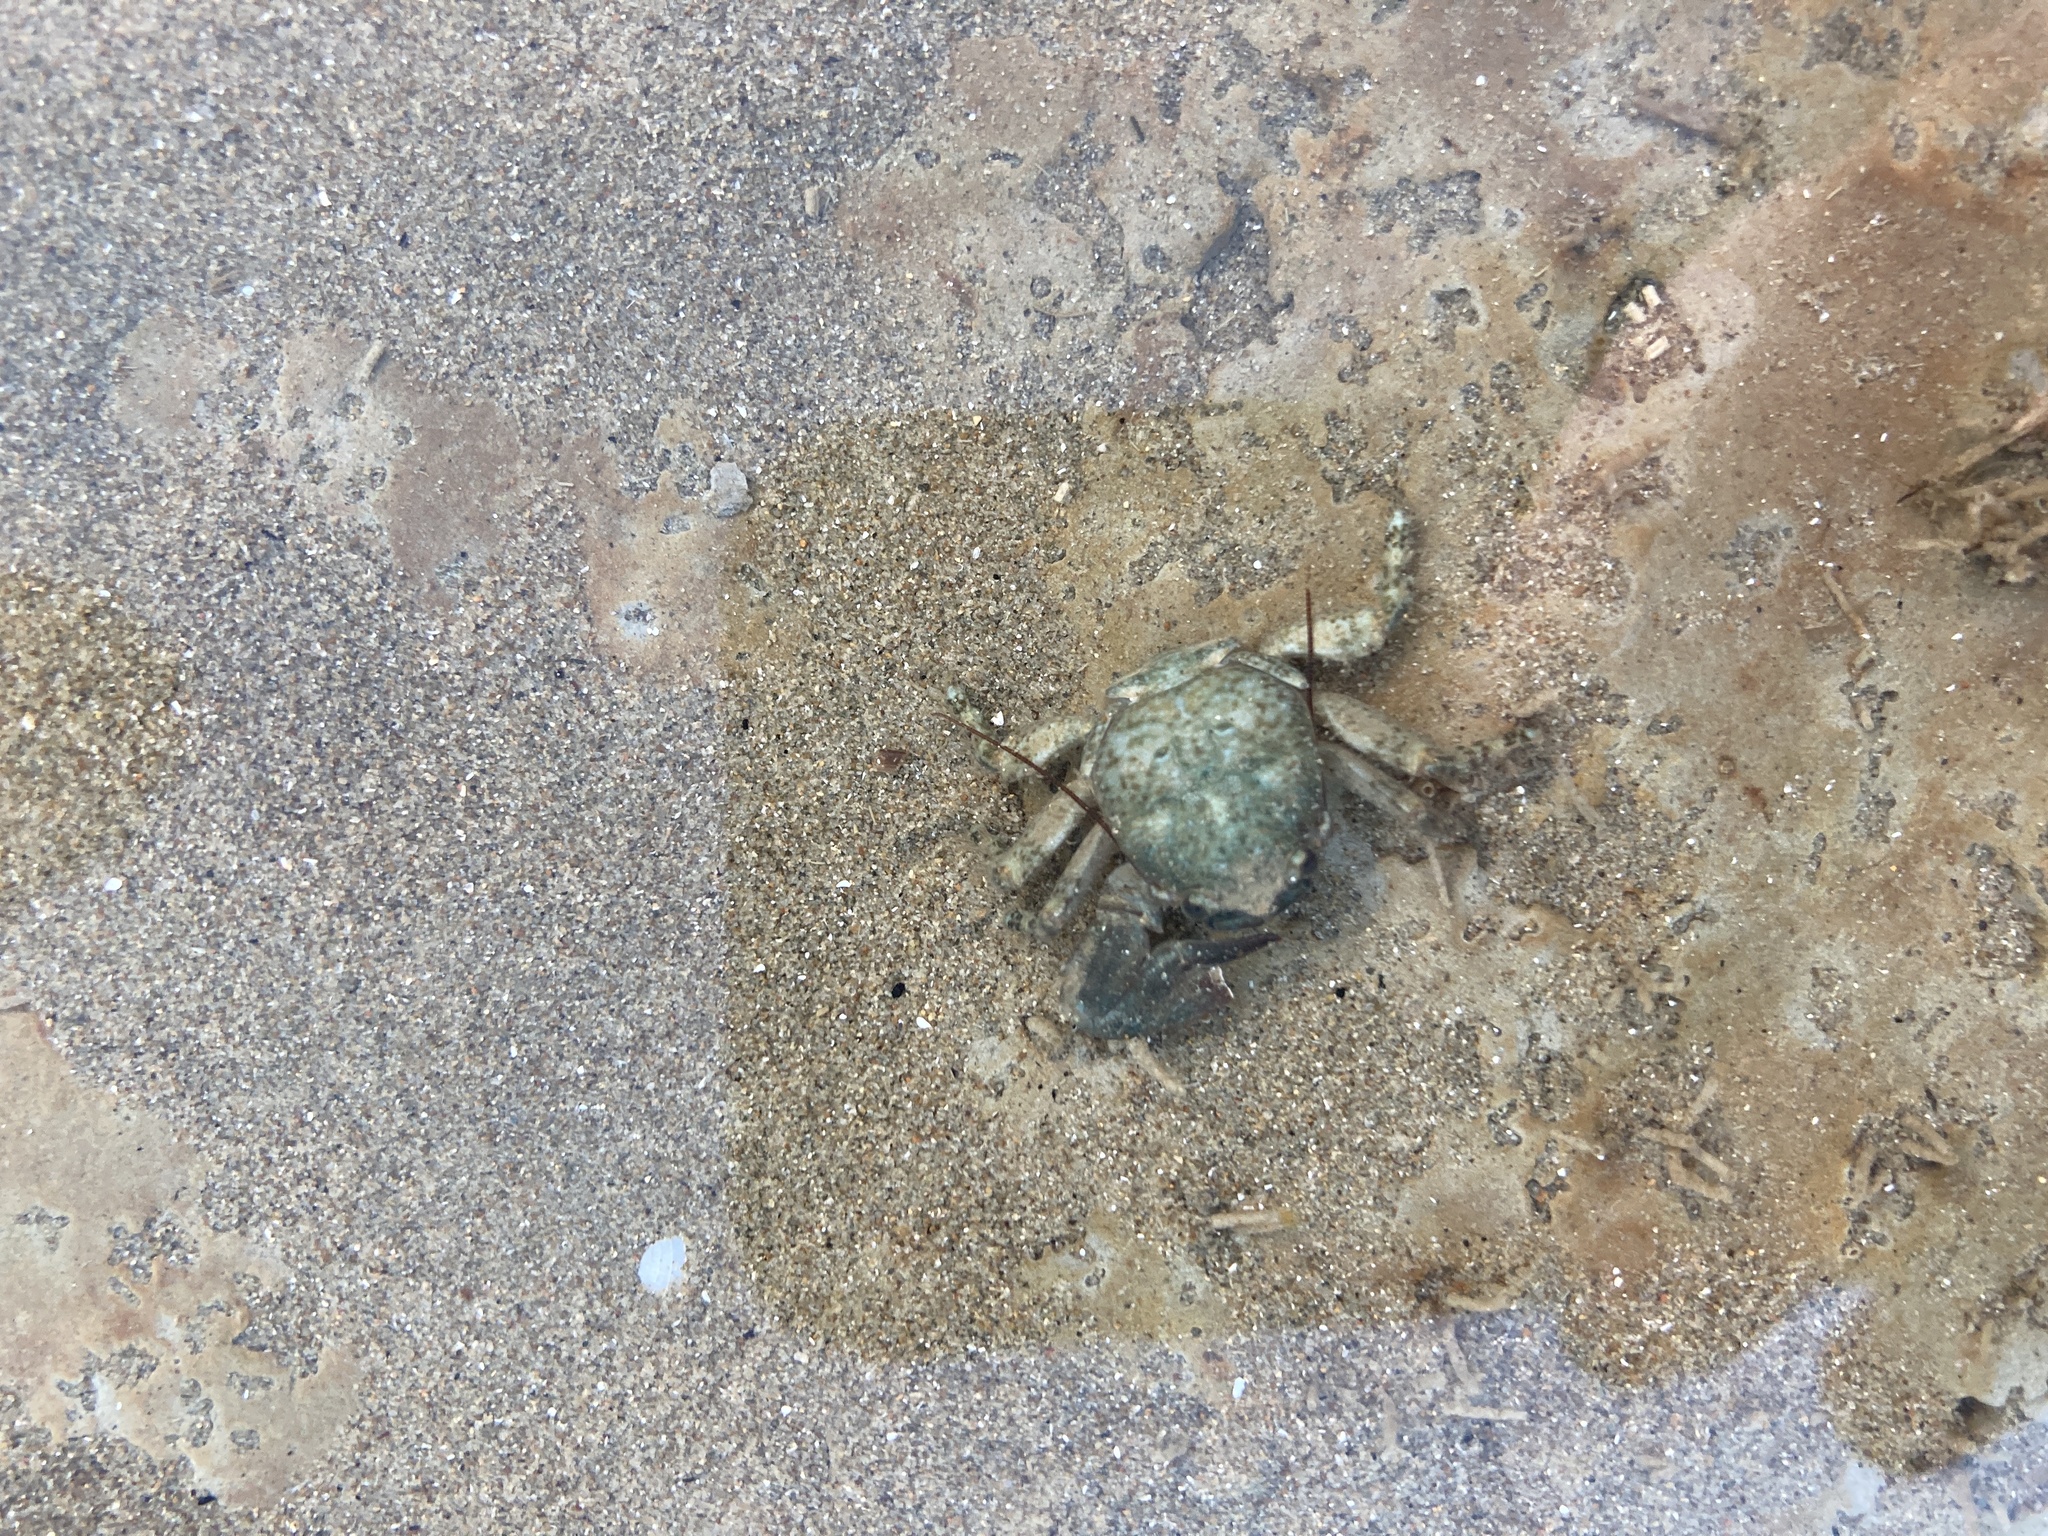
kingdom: Animalia
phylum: Arthropoda
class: Malacostraca
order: Decapoda
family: Porcellanidae
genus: Petrolisthes
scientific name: Petrolisthes elongatus
